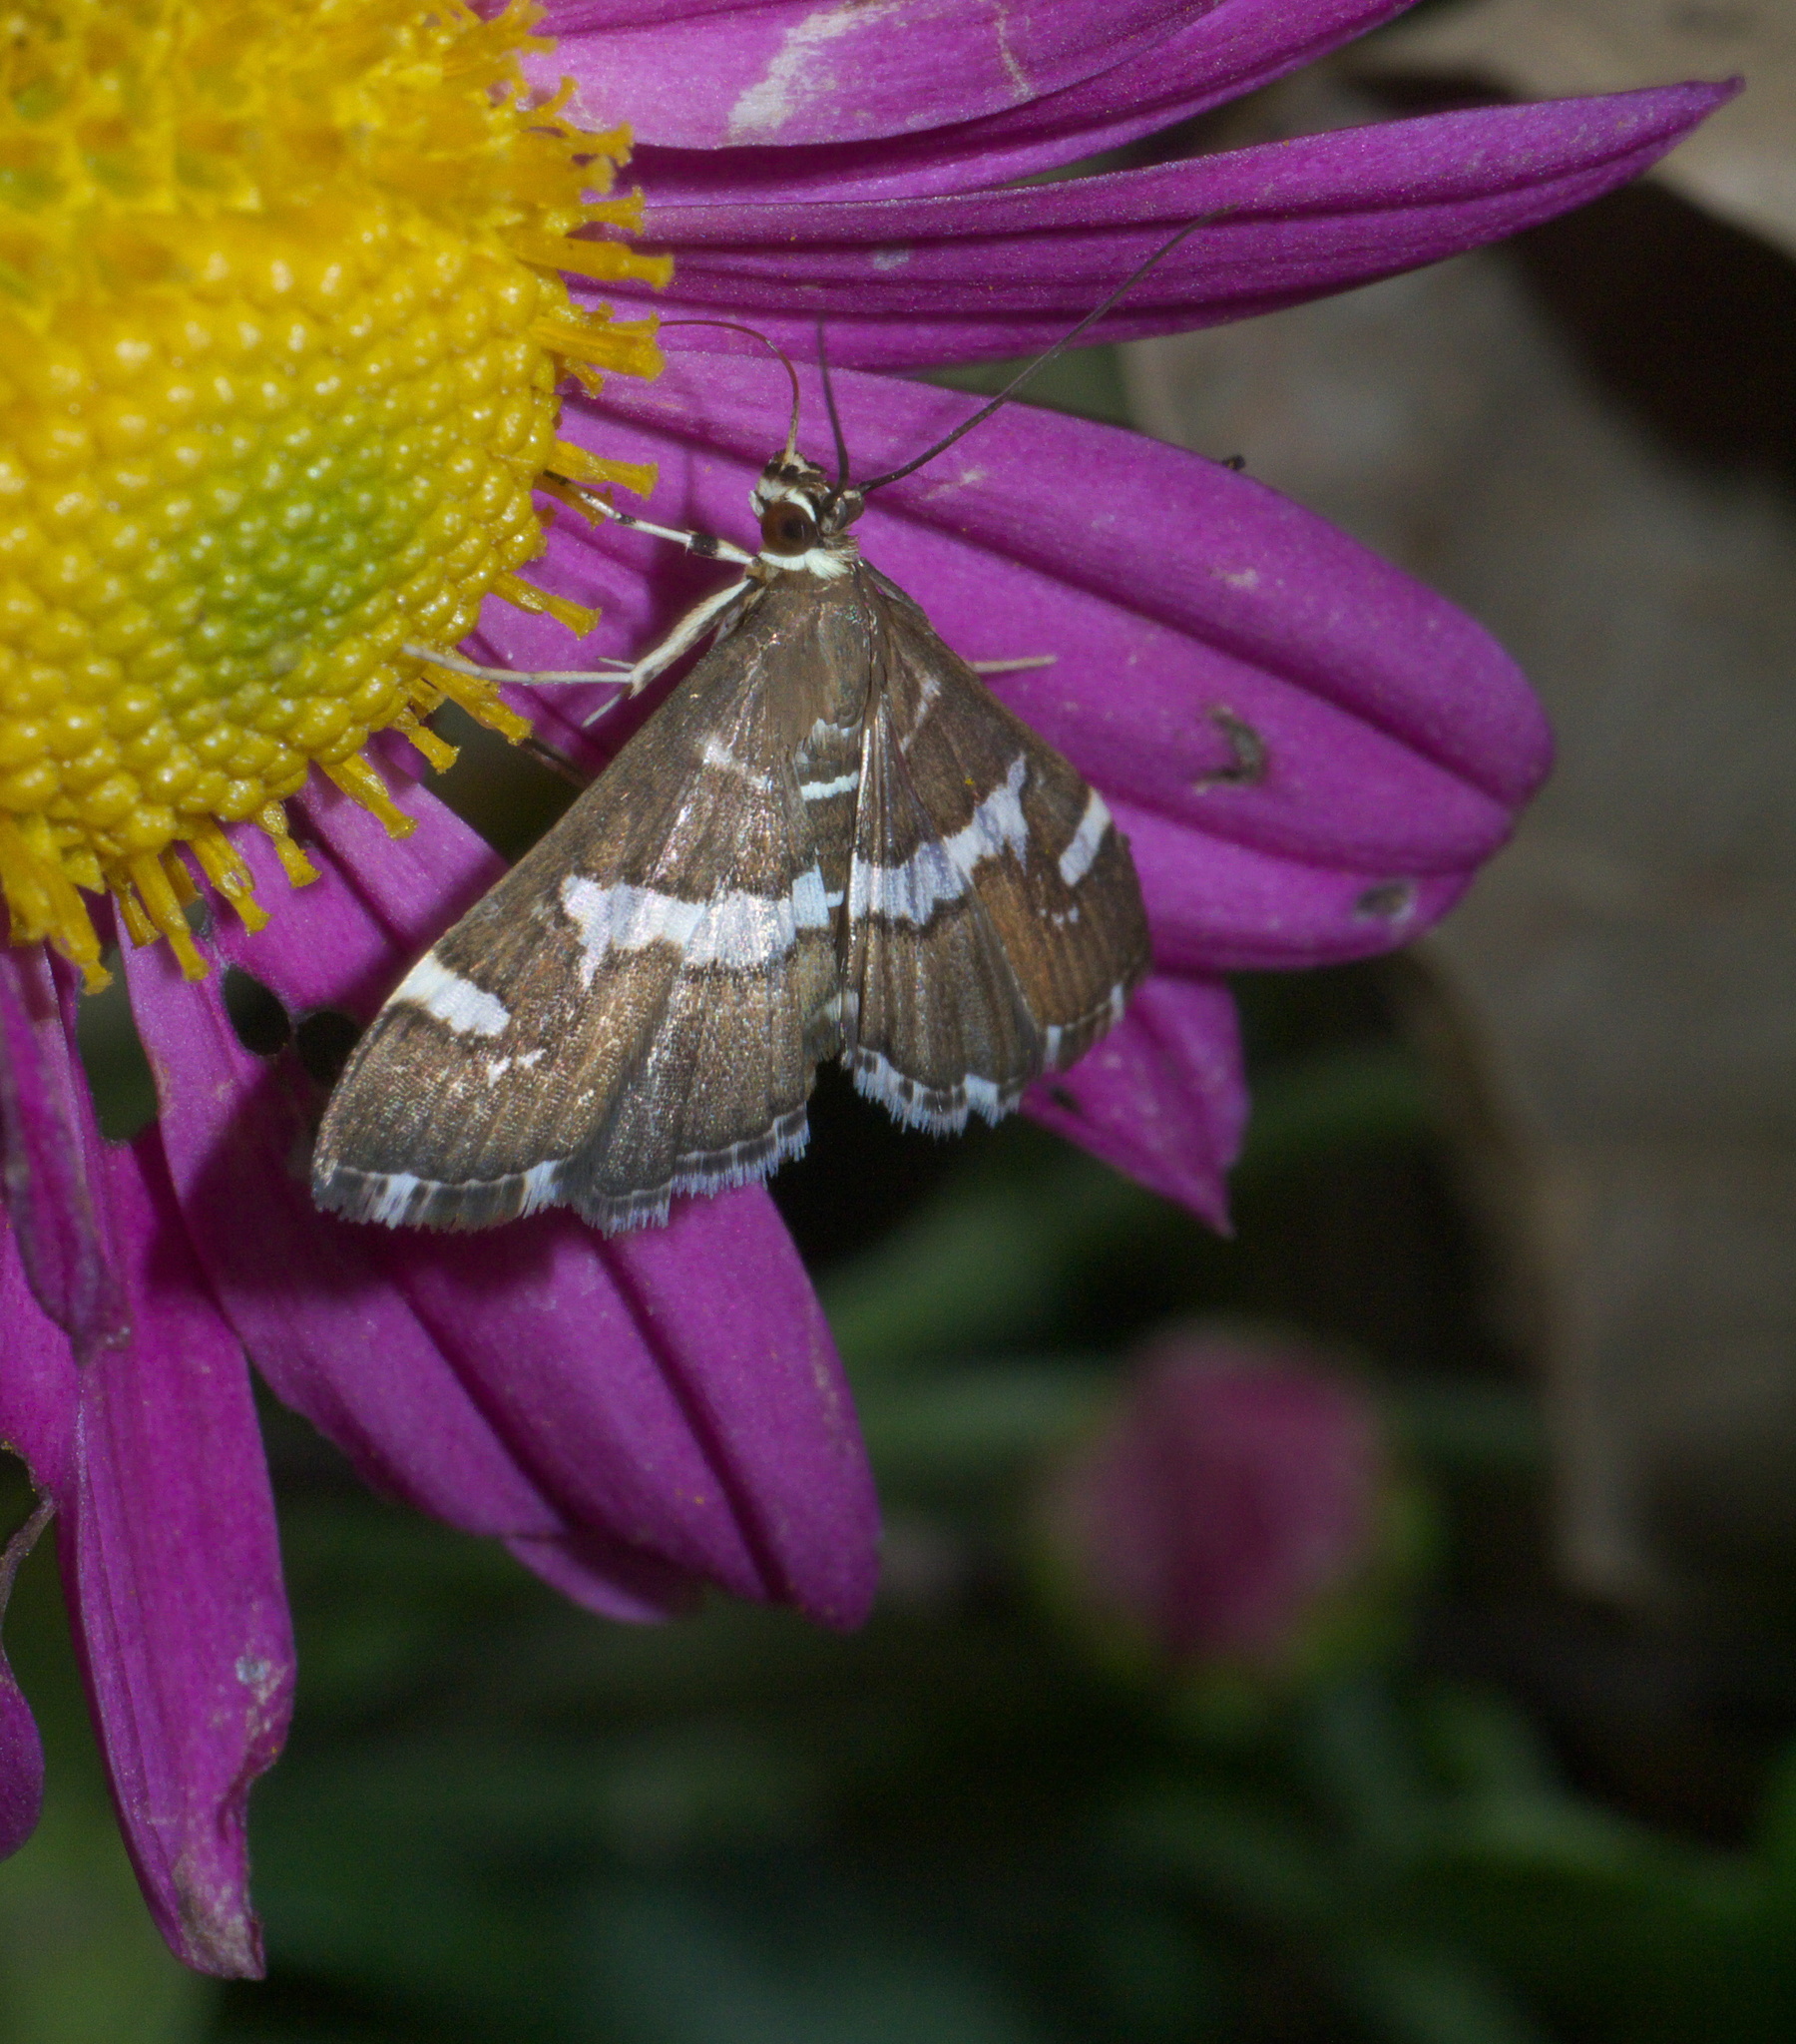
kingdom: Animalia
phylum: Arthropoda
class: Insecta
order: Lepidoptera
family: Crambidae
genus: Spoladea
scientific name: Spoladea recurvalis
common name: Beet webworm moth
